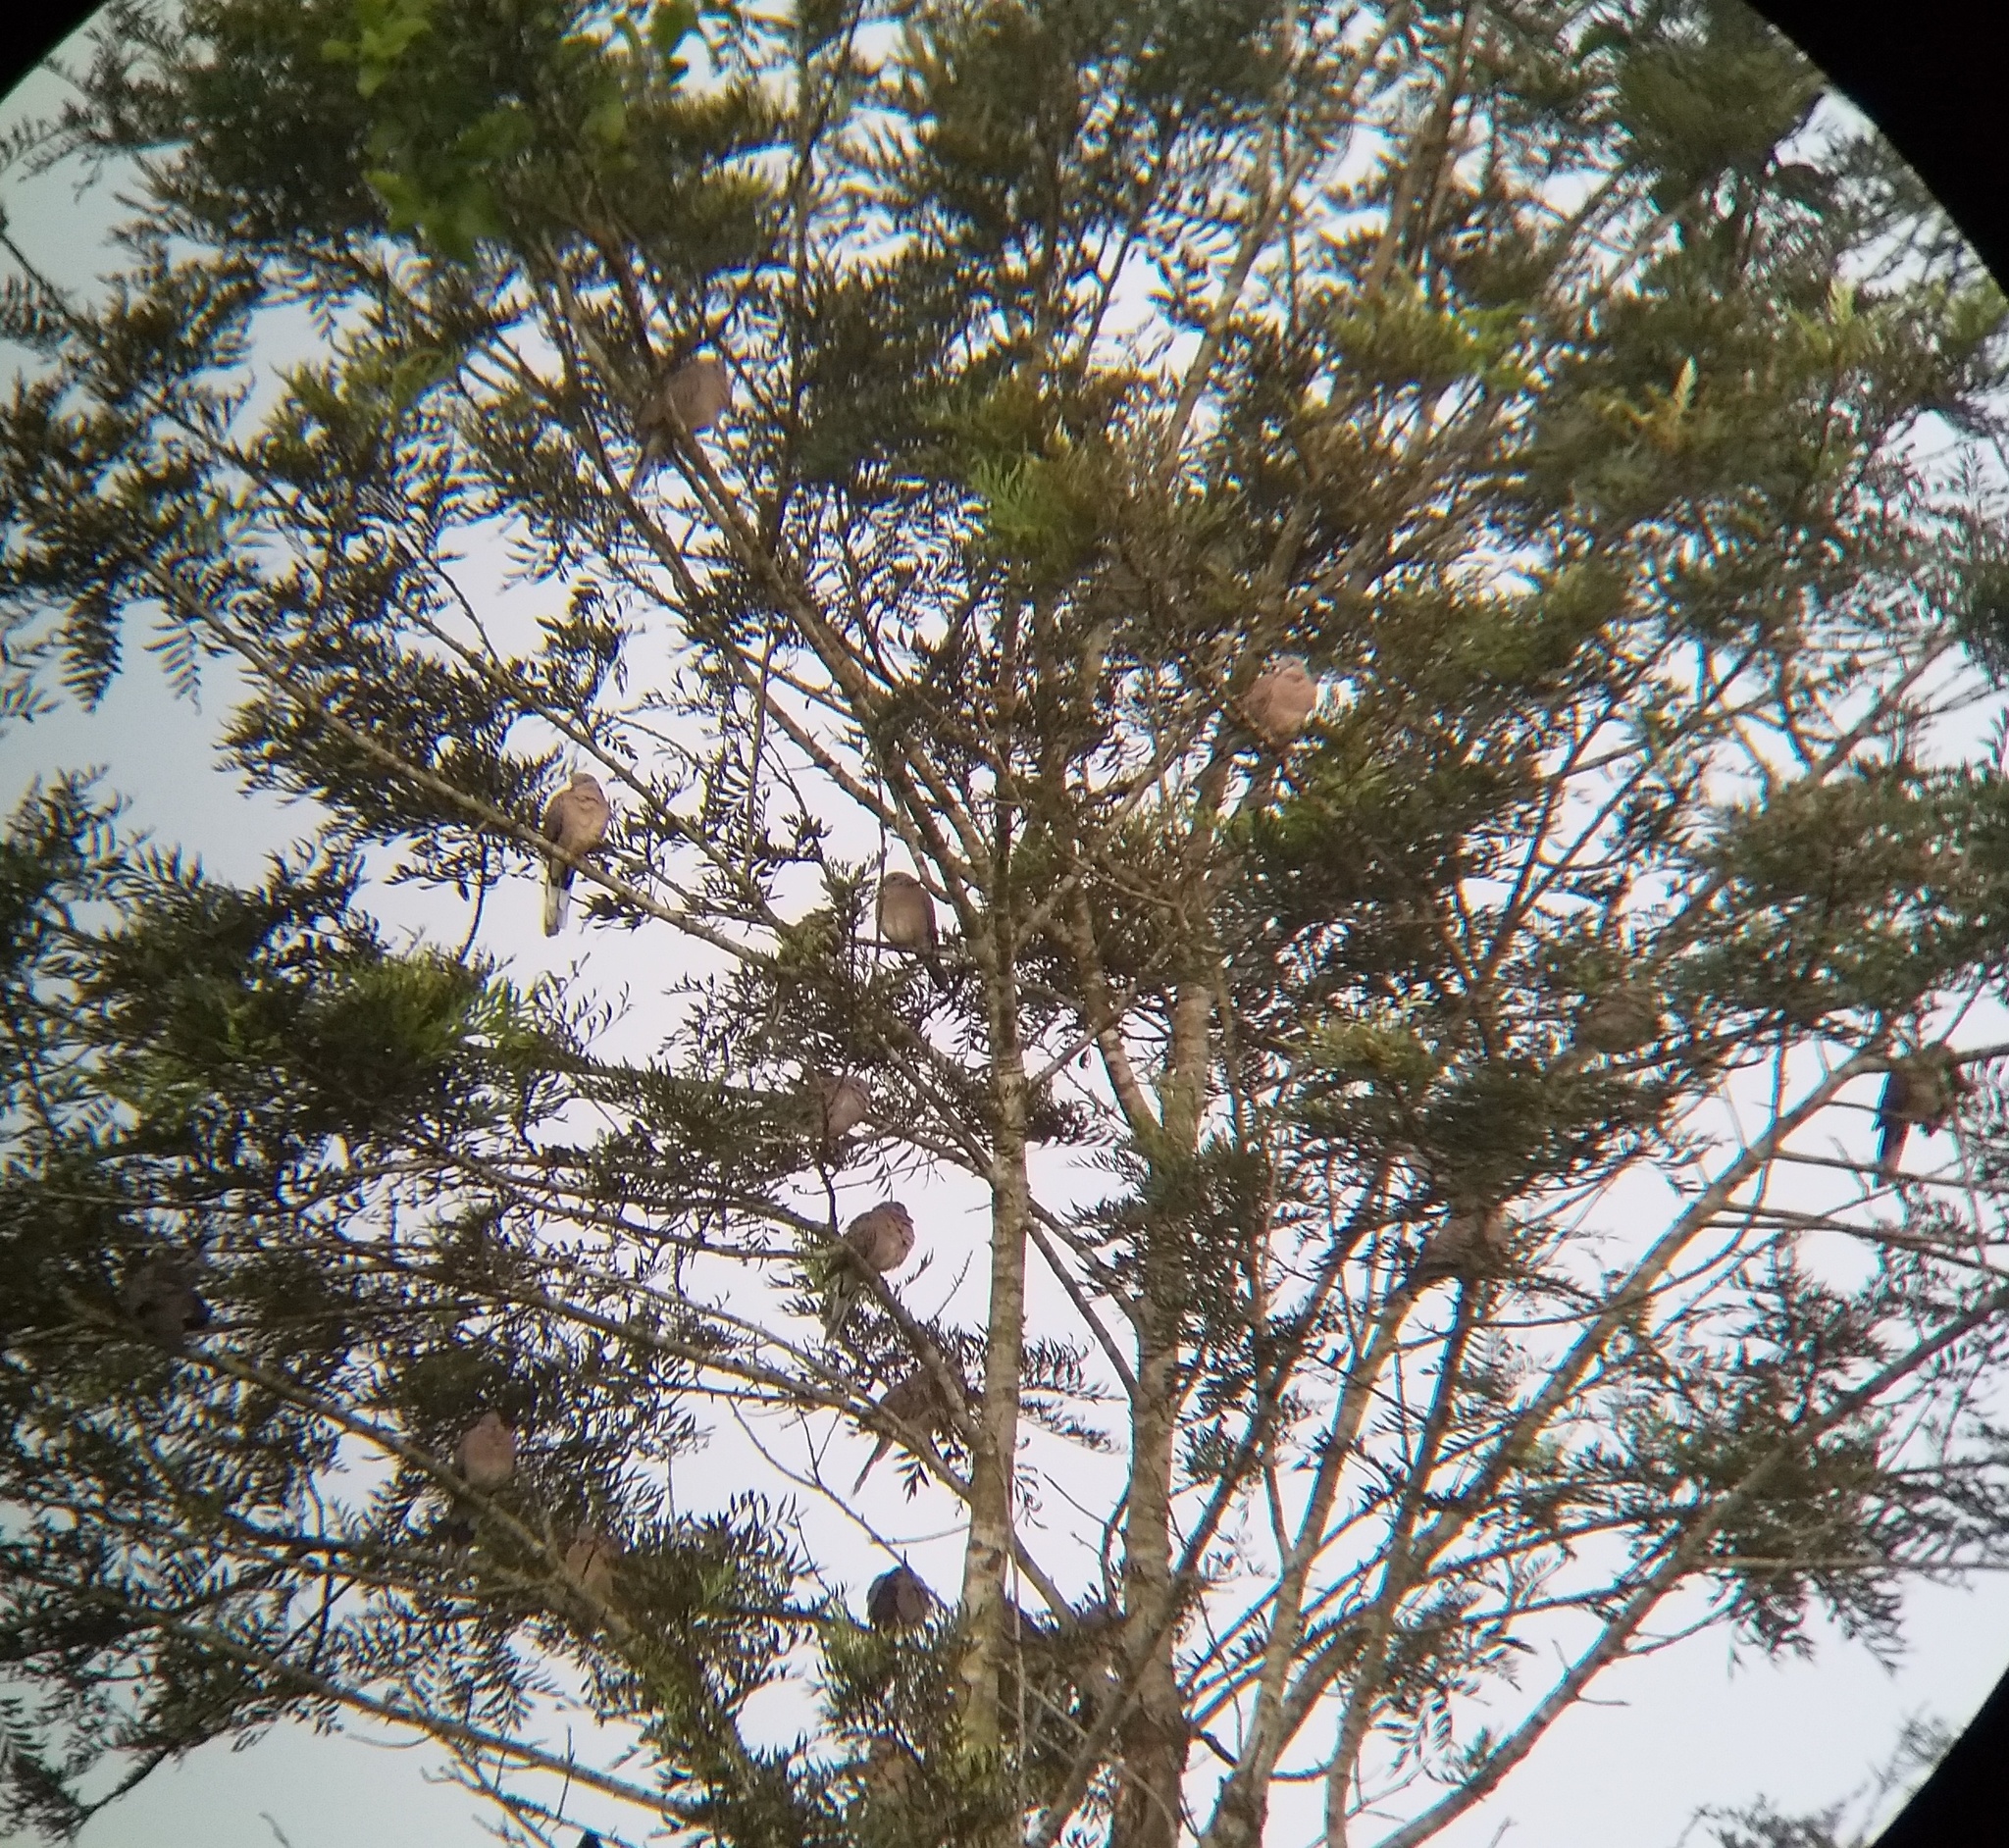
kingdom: Animalia
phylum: Chordata
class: Aves
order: Columbiformes
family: Columbidae
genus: Spilopelia
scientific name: Spilopelia chinensis
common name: Spotted dove
